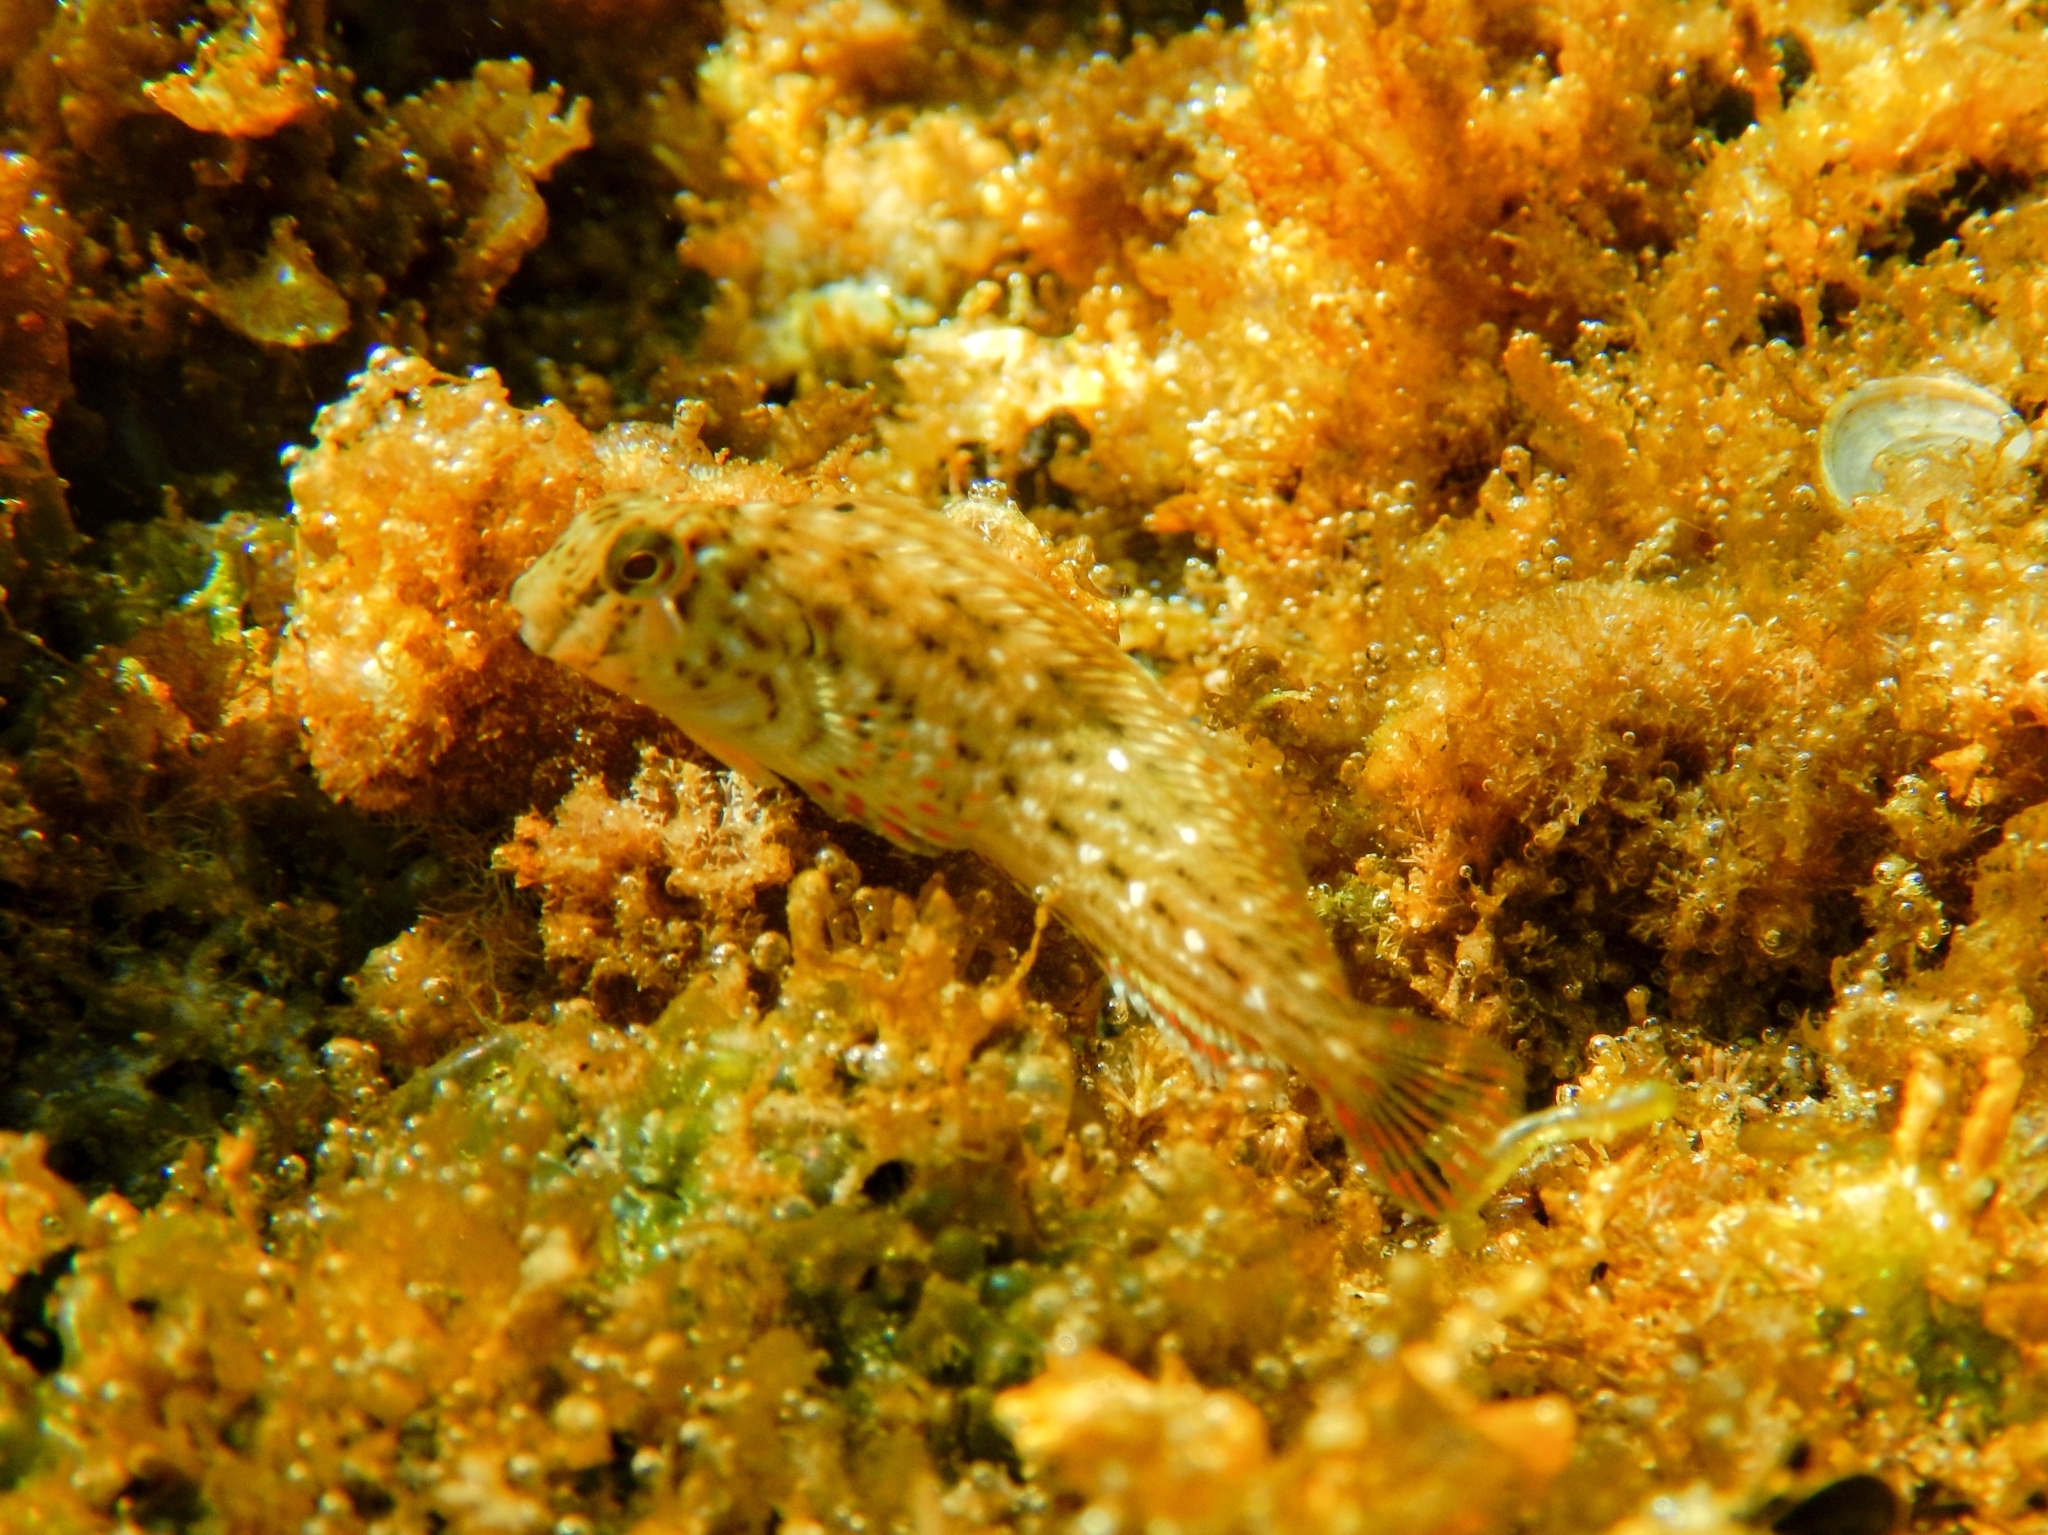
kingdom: Animalia
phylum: Chordata
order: Perciformes
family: Blenniidae
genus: Parablennius
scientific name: Parablennius sanguinolentus
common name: Black sea blenny
